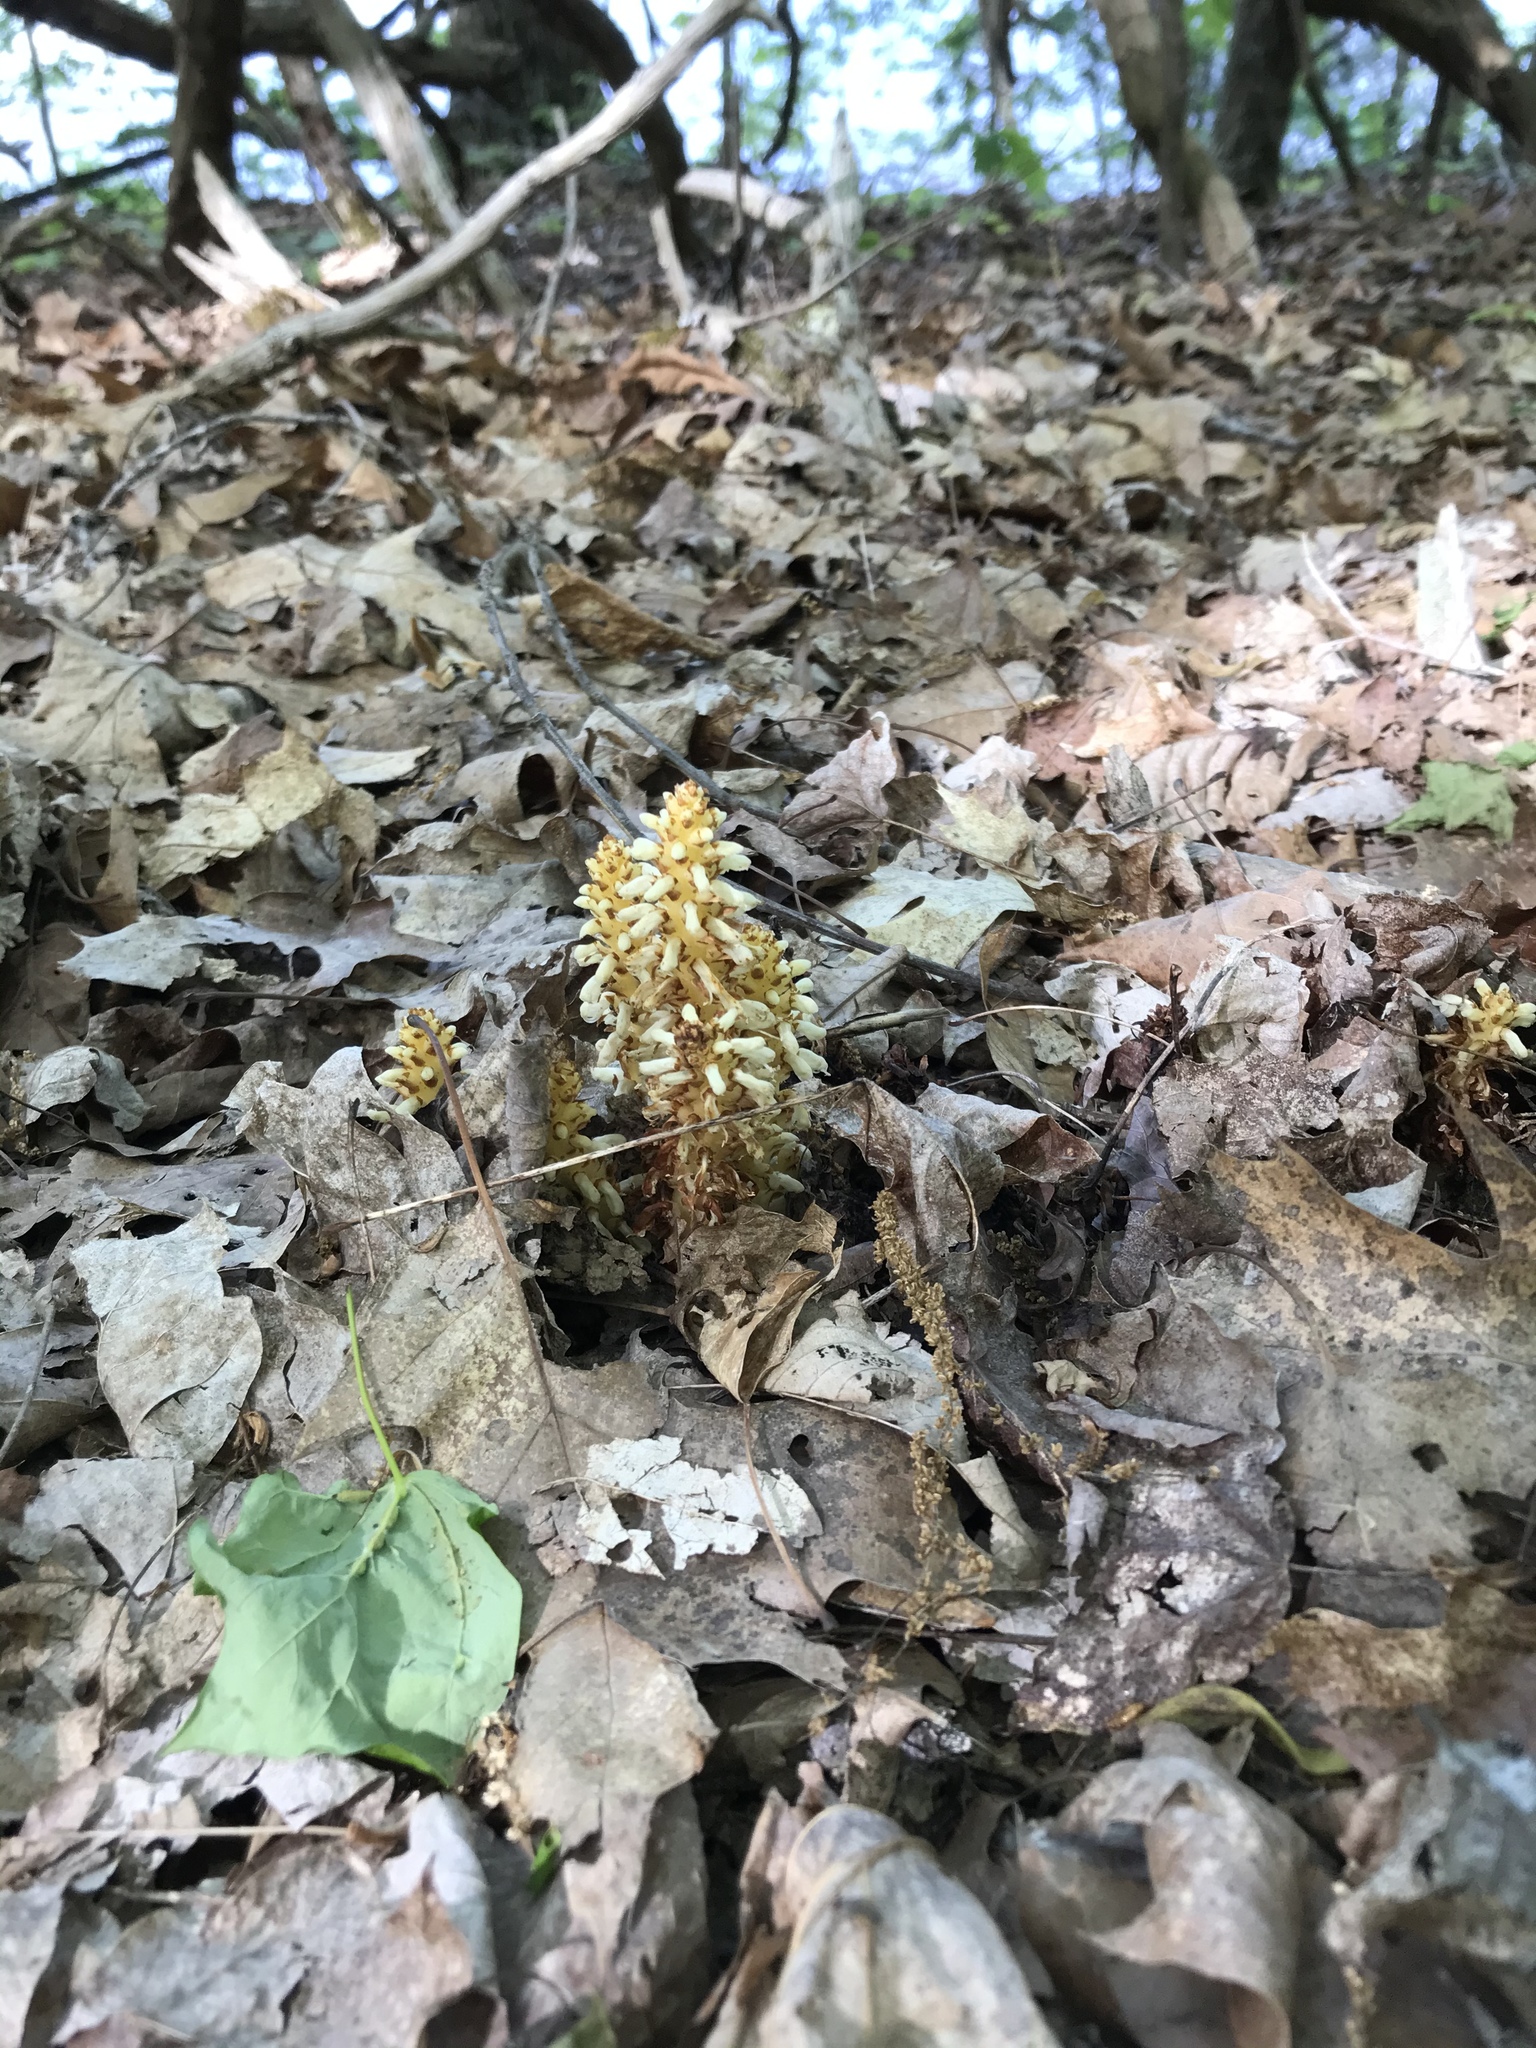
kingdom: Plantae
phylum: Tracheophyta
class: Magnoliopsida
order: Lamiales
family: Orobanchaceae
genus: Conopholis
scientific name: Conopholis americana
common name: American cancer-root
